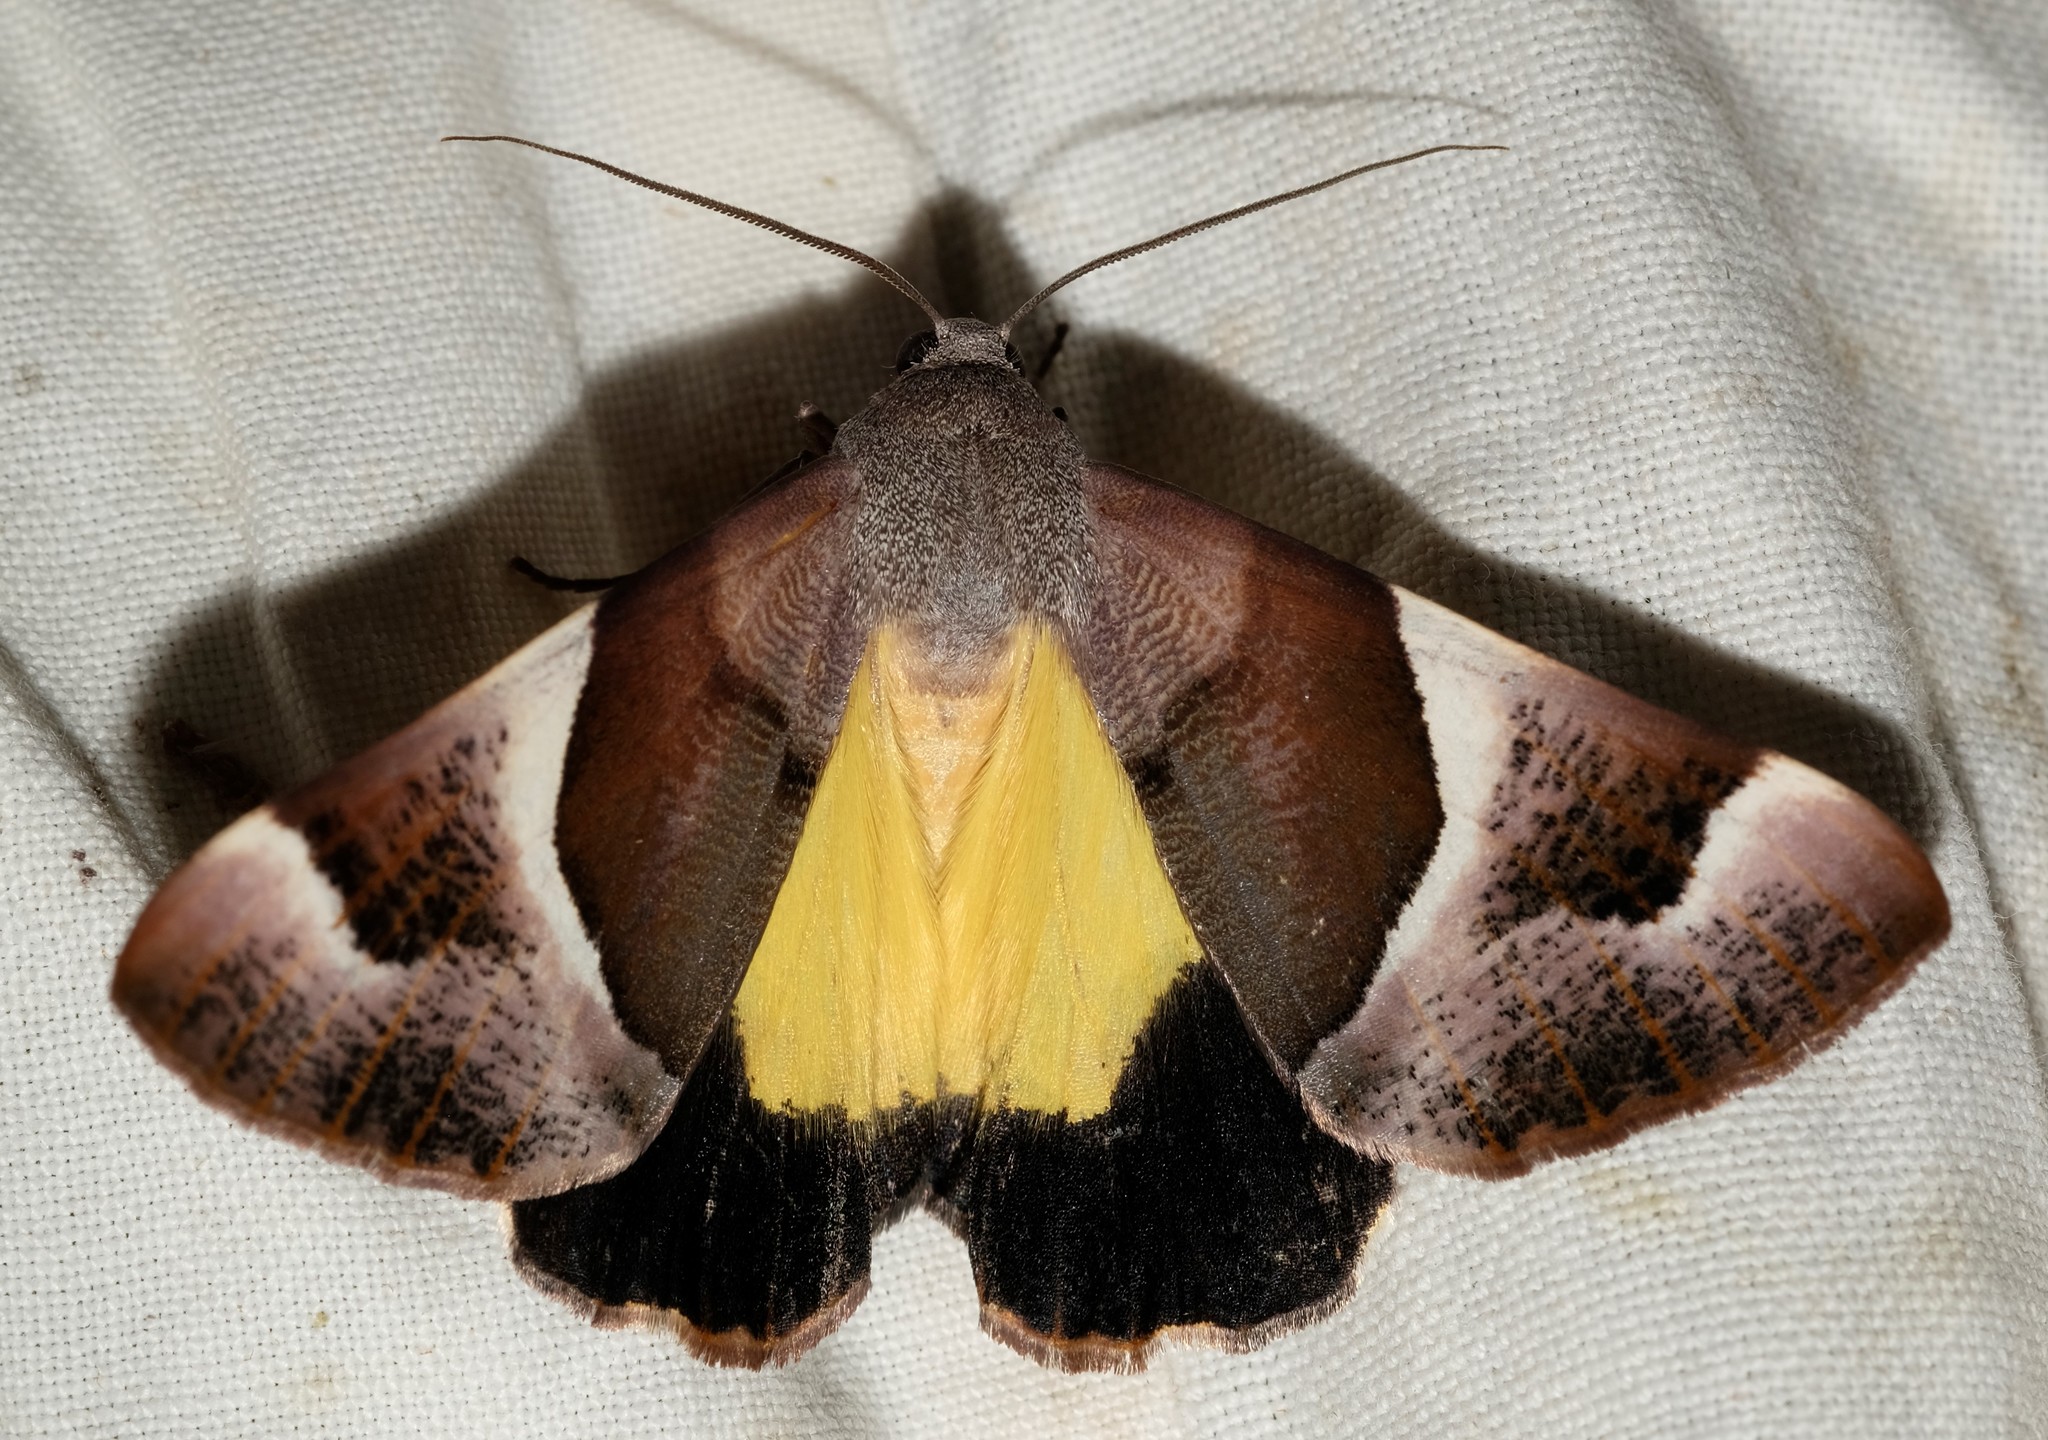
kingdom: Animalia
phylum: Arthropoda
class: Insecta
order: Lepidoptera
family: Geometridae
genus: Niceteria
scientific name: Niceteria macrocosma
